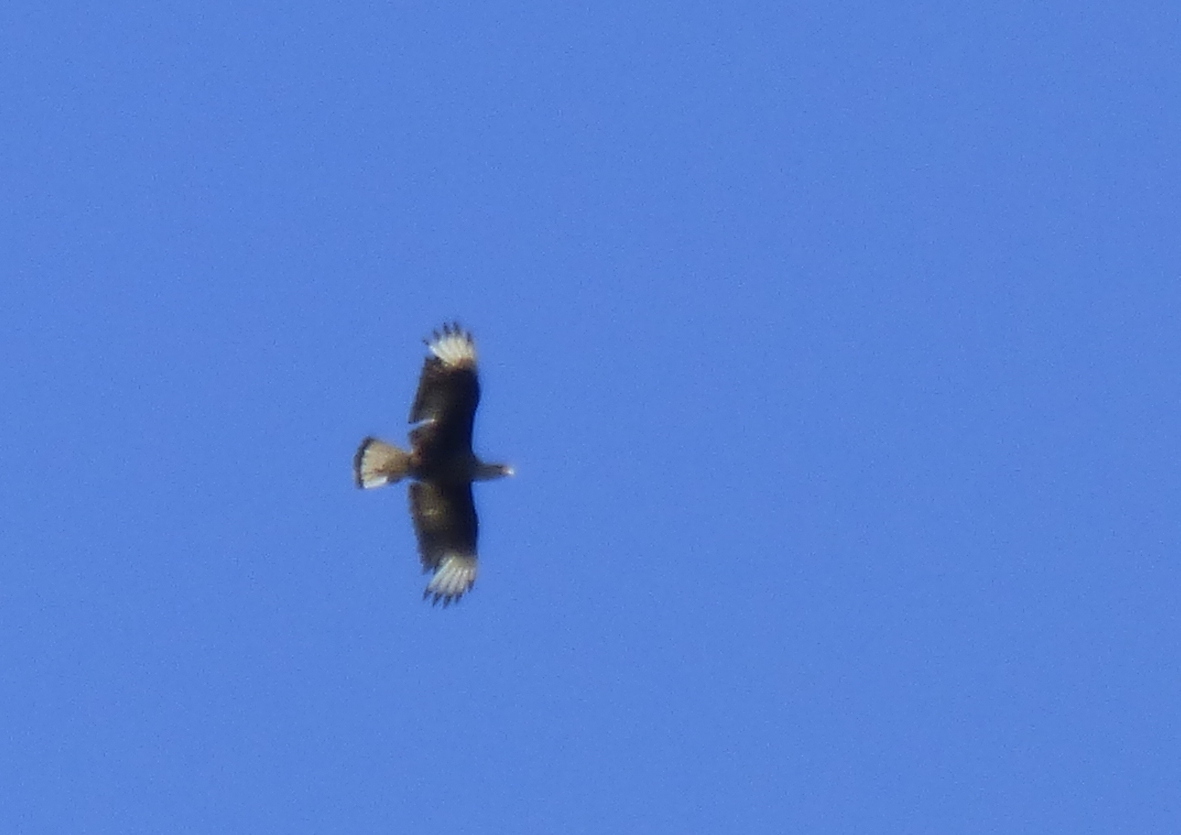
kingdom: Animalia
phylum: Chordata
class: Aves
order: Falconiformes
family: Falconidae
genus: Caracara
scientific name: Caracara plancus
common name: Southern caracara
